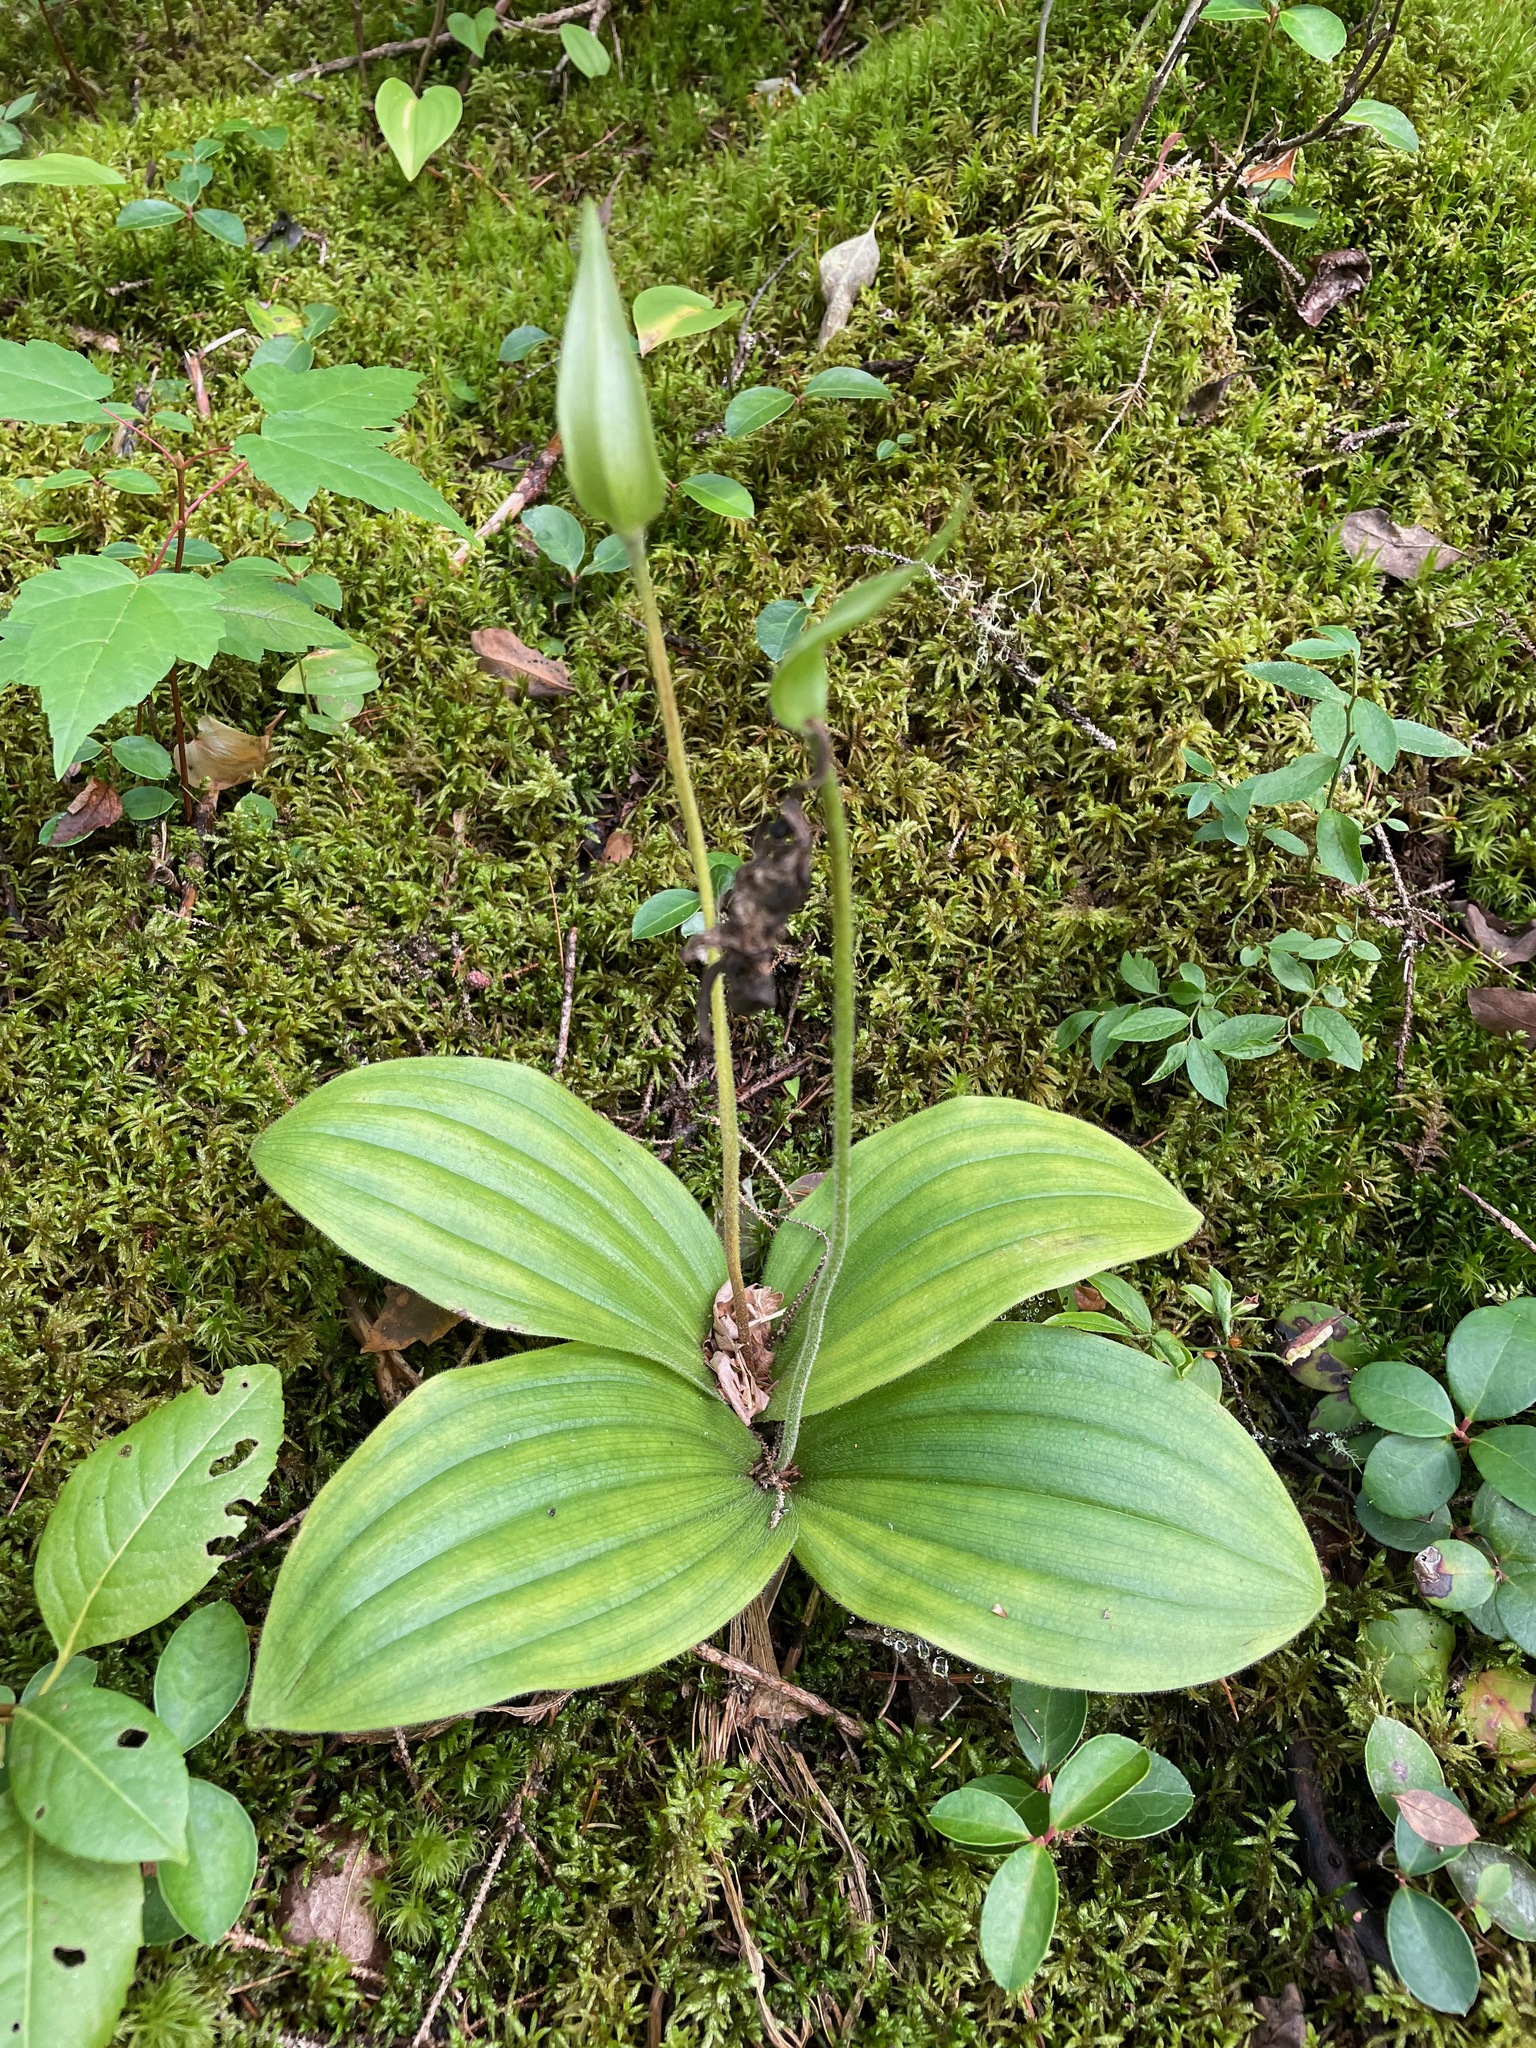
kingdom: Plantae
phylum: Tracheophyta
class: Liliopsida
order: Asparagales
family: Orchidaceae
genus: Cypripedium
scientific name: Cypripedium acaule
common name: Pink lady's-slipper
